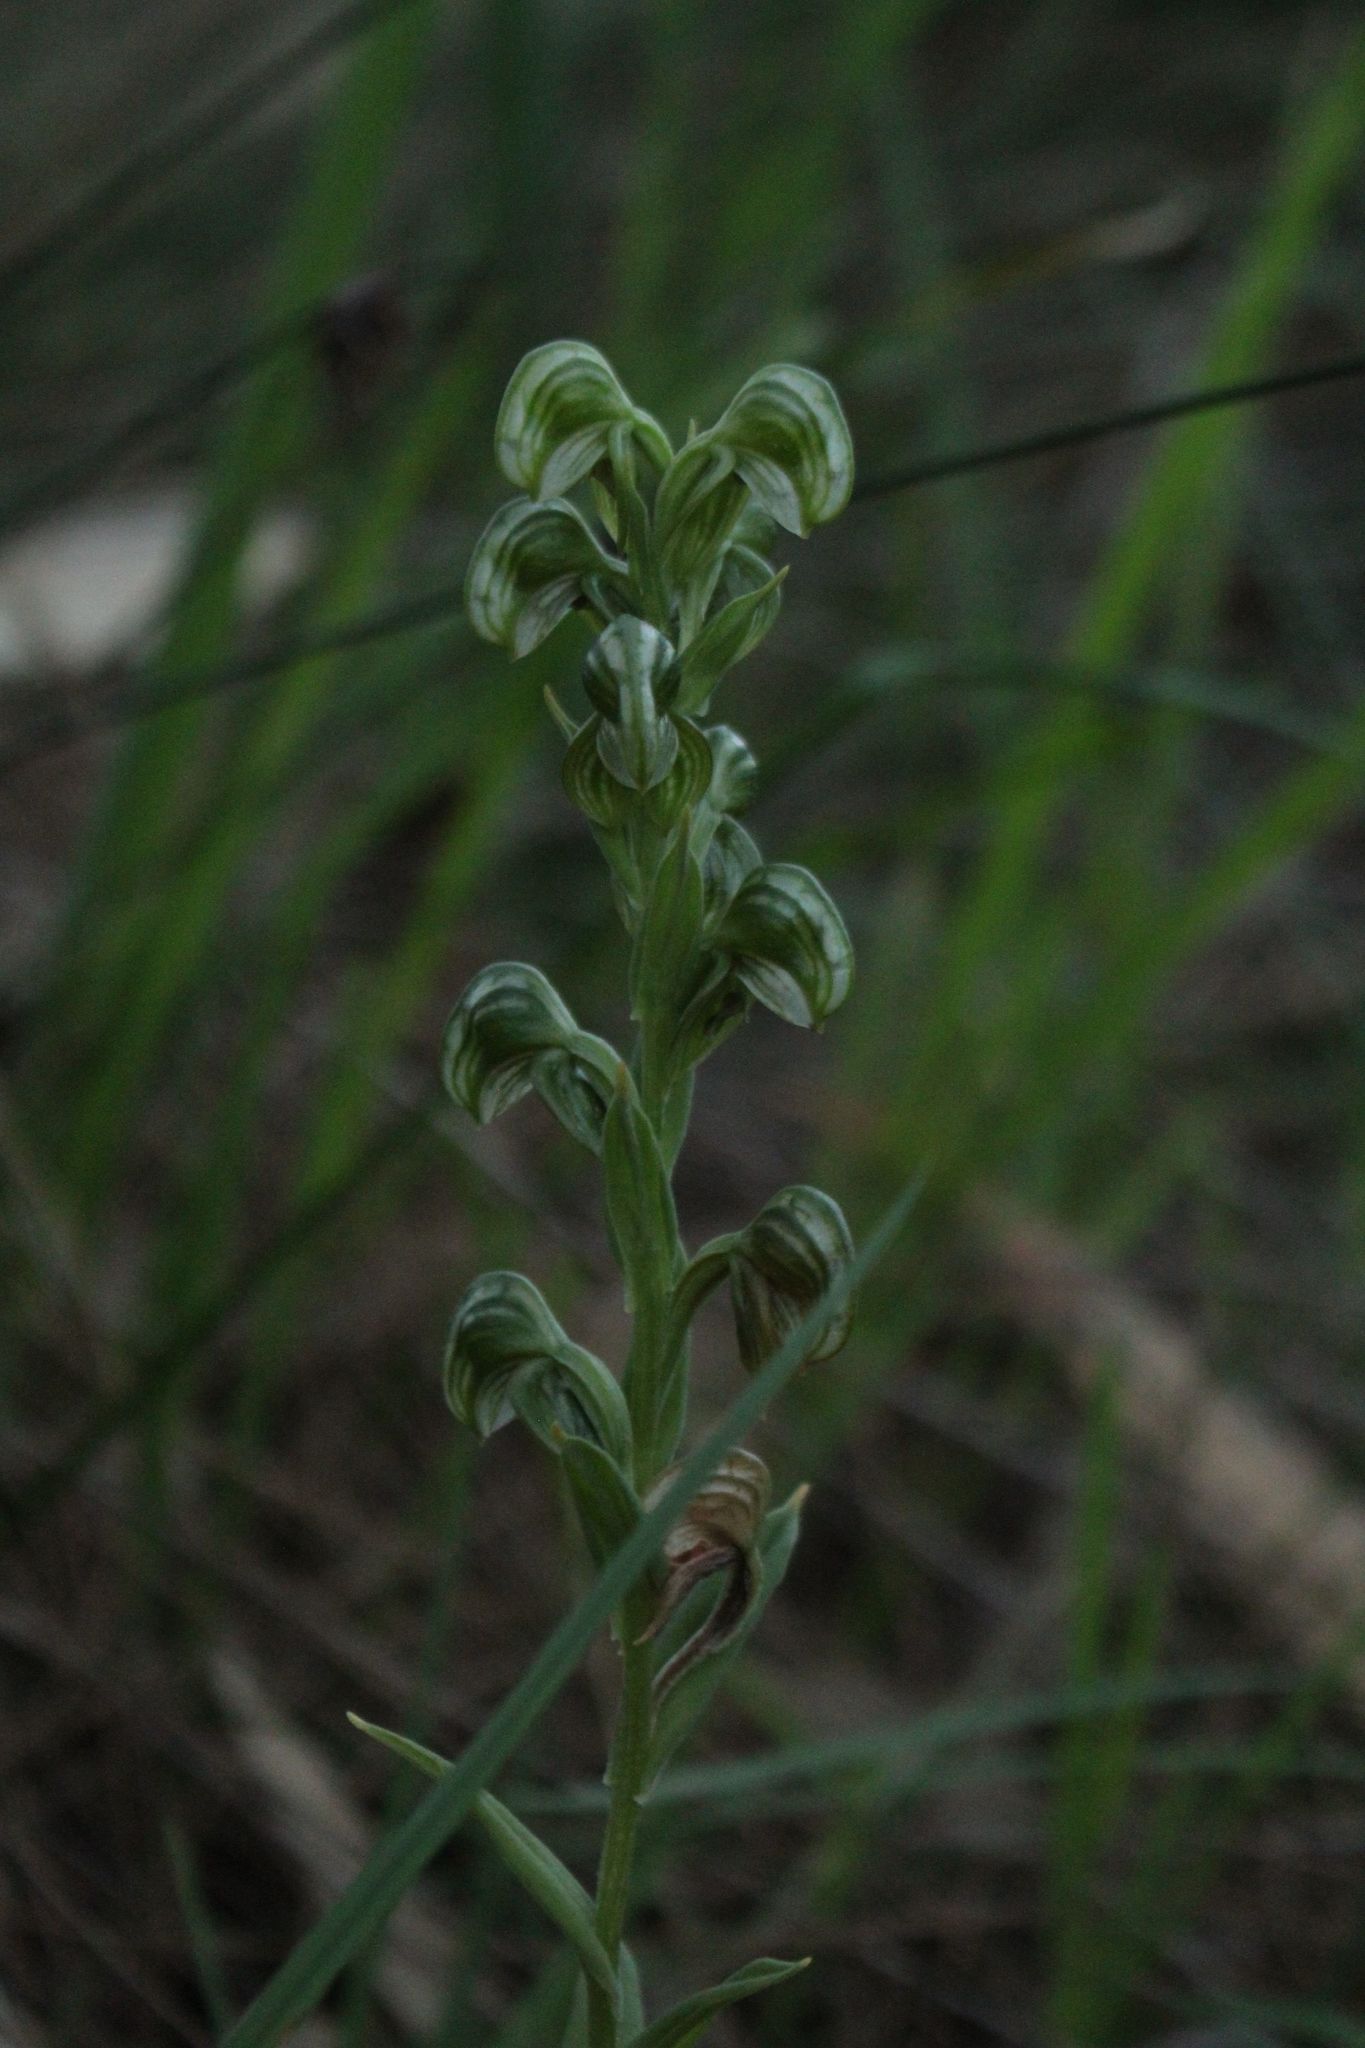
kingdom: Plantae
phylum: Tracheophyta
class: Liliopsida
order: Asparagales
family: Orchidaceae
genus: Pterostylis
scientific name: Pterostylis vittata
